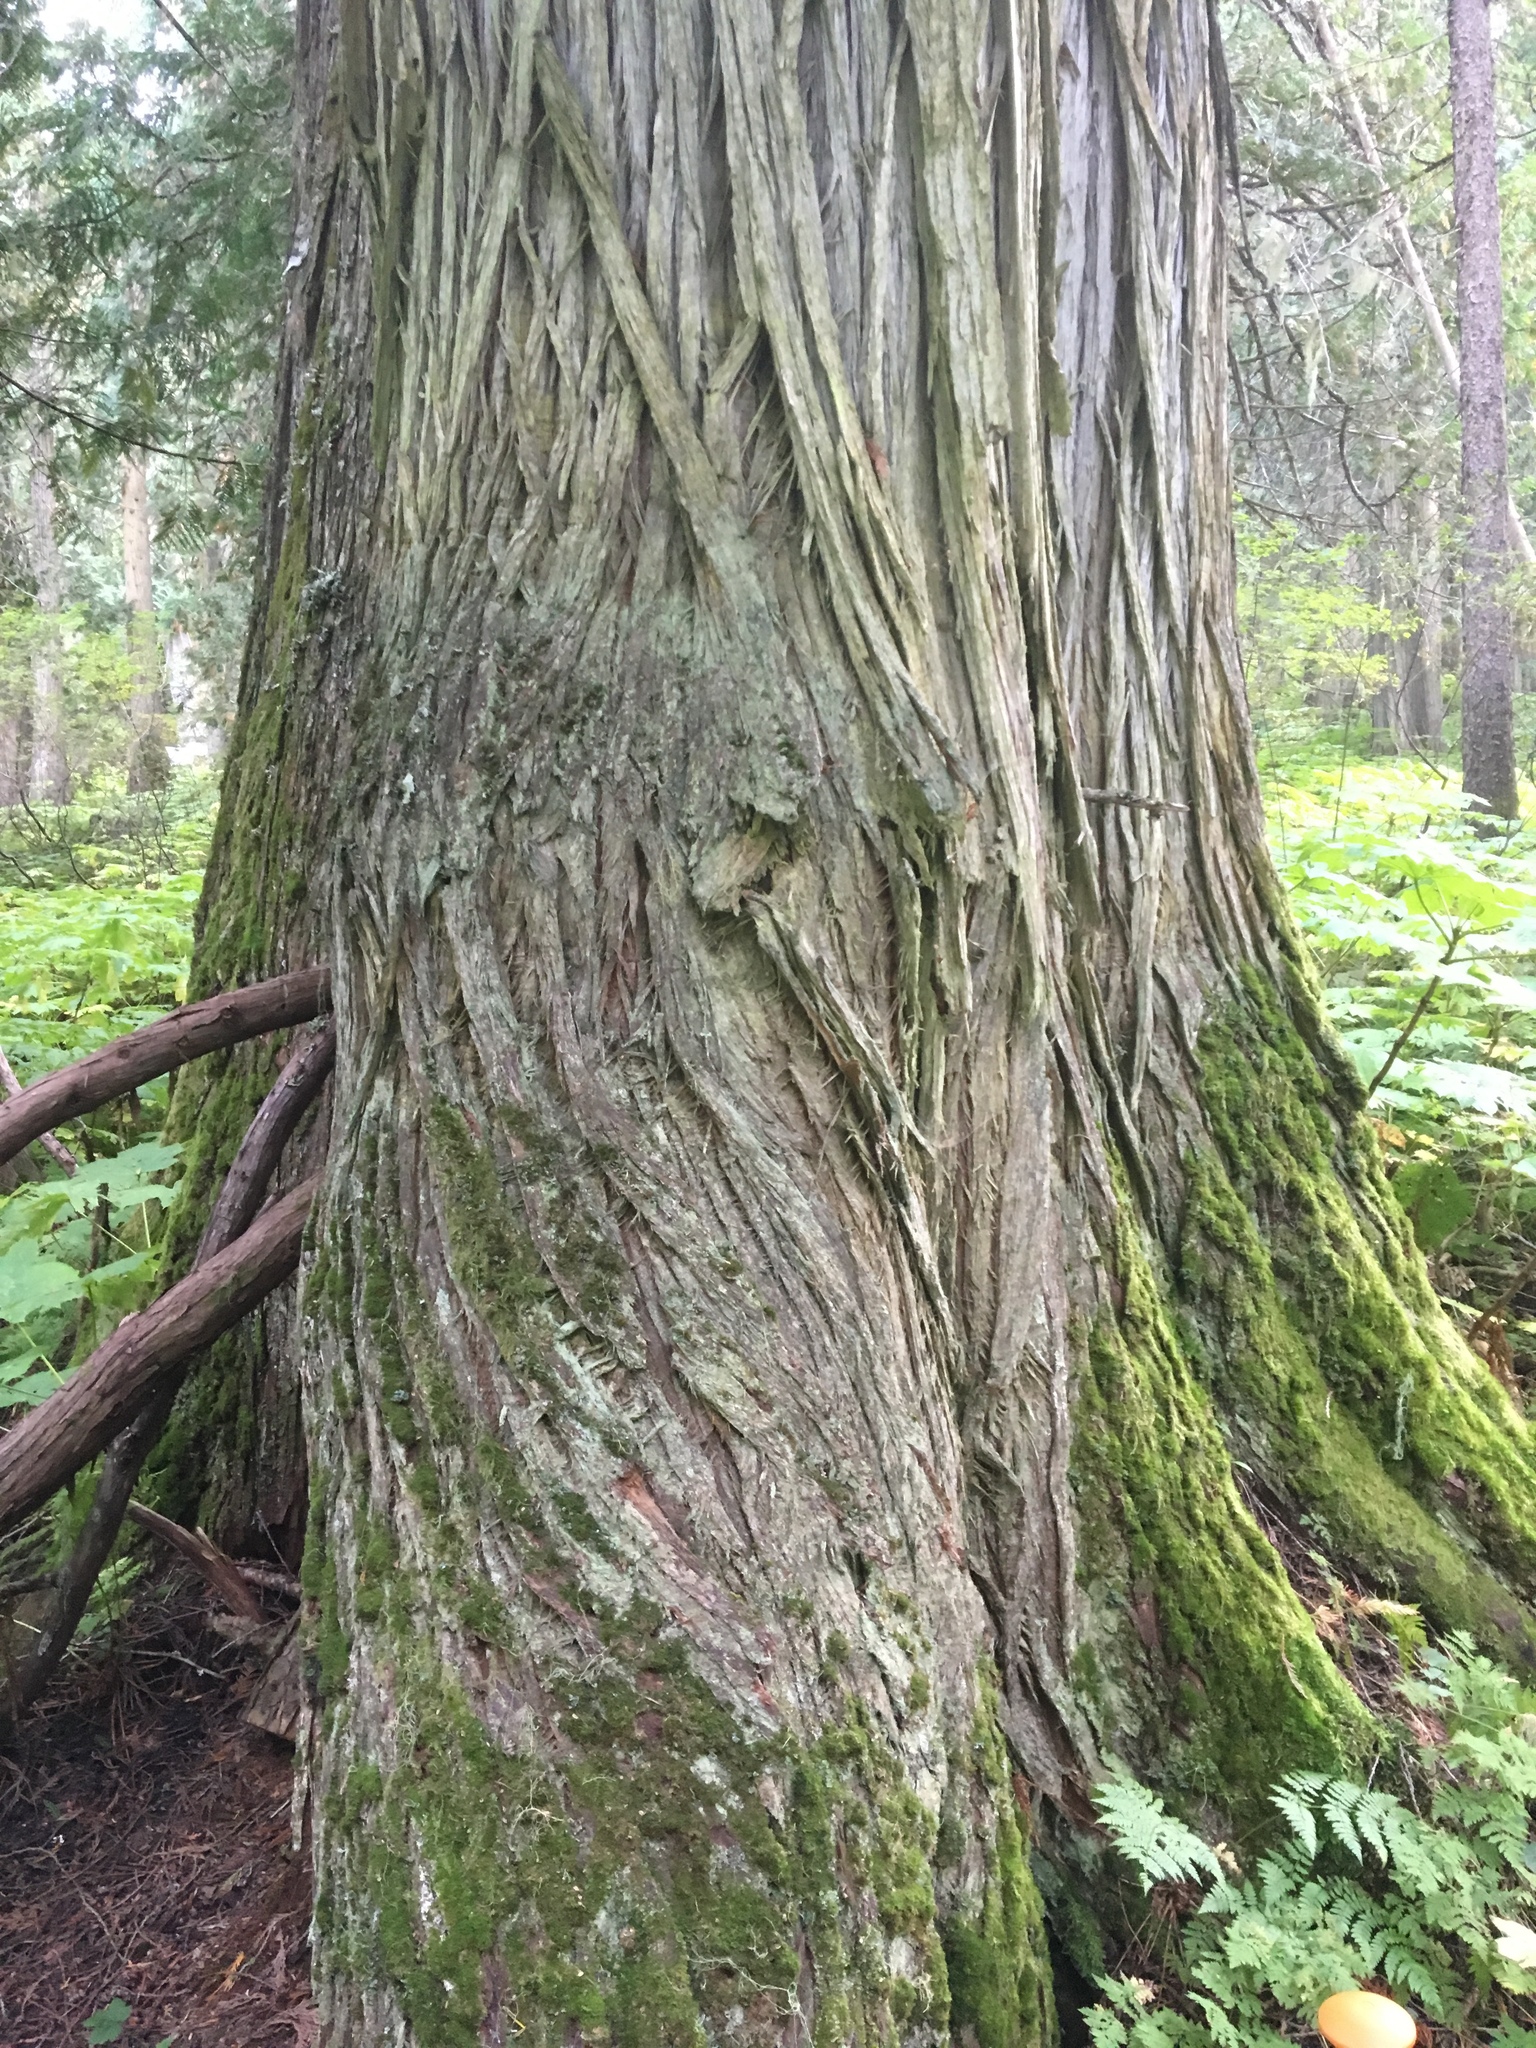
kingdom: Plantae
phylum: Tracheophyta
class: Pinopsida
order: Pinales
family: Cupressaceae
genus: Thuja
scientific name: Thuja plicata
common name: Western red-cedar
